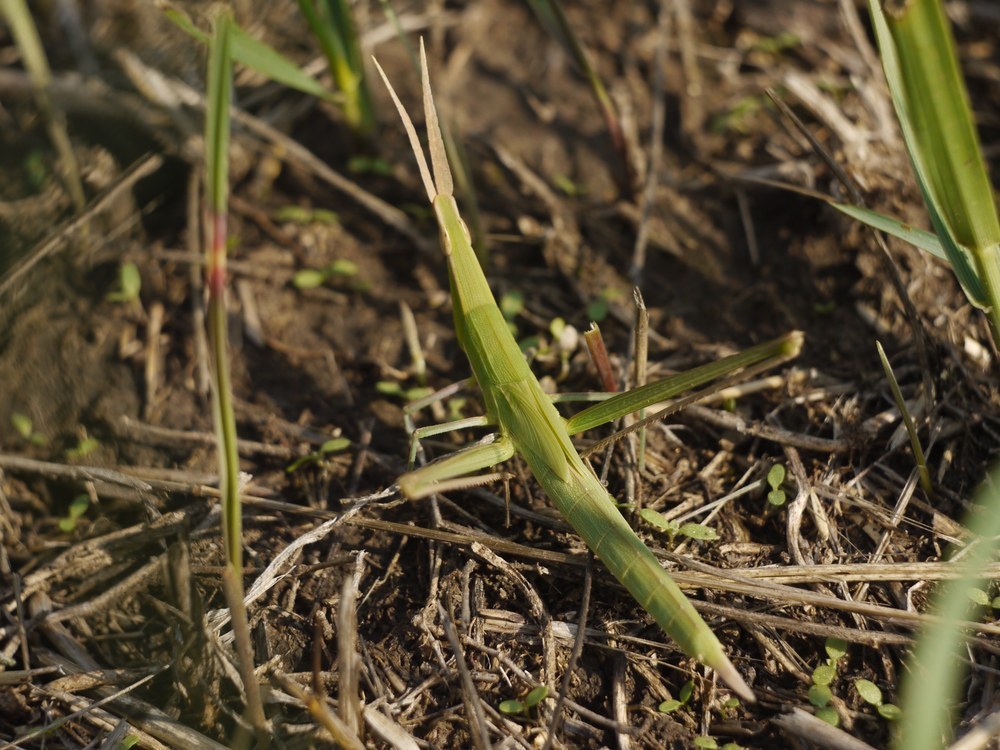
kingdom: Animalia
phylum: Arthropoda
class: Insecta
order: Orthoptera
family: Acrididae
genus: Acrida
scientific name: Acrida ungarica
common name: Common cone-headed grasshopper
